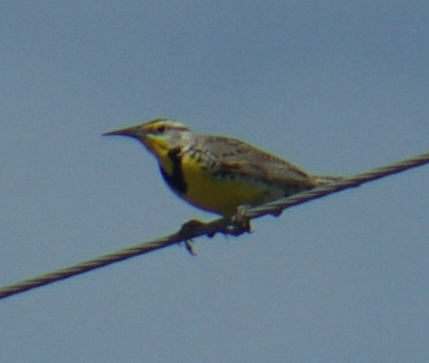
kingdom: Animalia
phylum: Chordata
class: Aves
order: Passeriformes
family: Icteridae
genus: Sturnella
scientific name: Sturnella neglecta
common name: Western meadowlark
